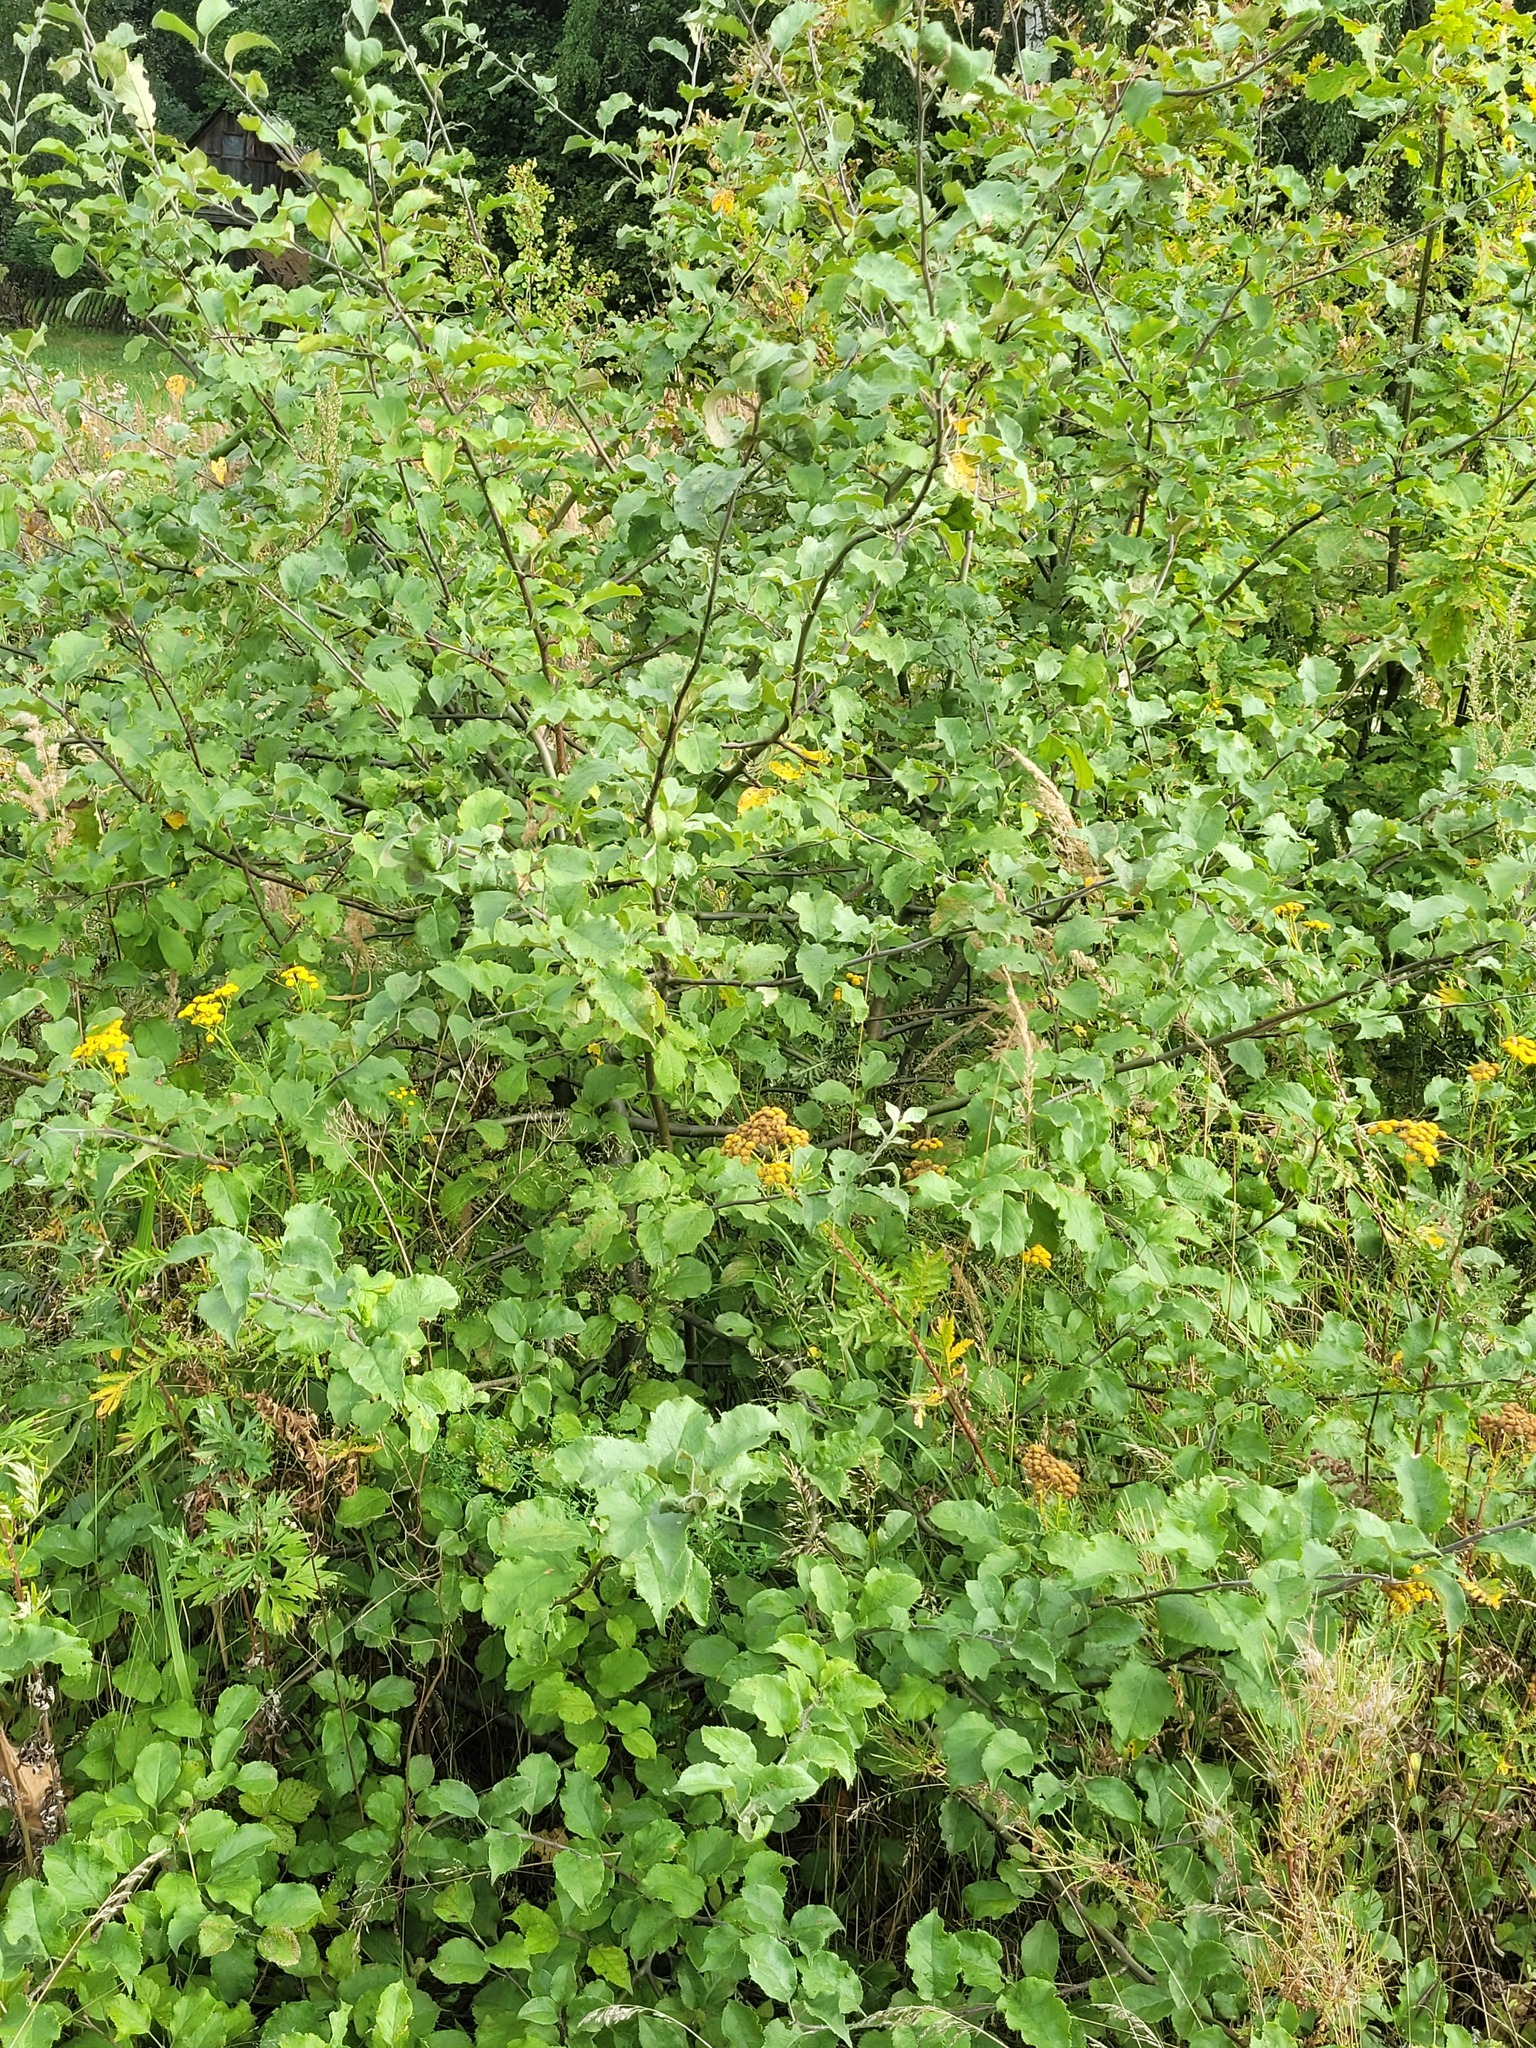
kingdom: Plantae
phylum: Tracheophyta
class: Magnoliopsida
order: Rosales
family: Rosaceae
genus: Malus
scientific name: Malus domestica
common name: Apple
